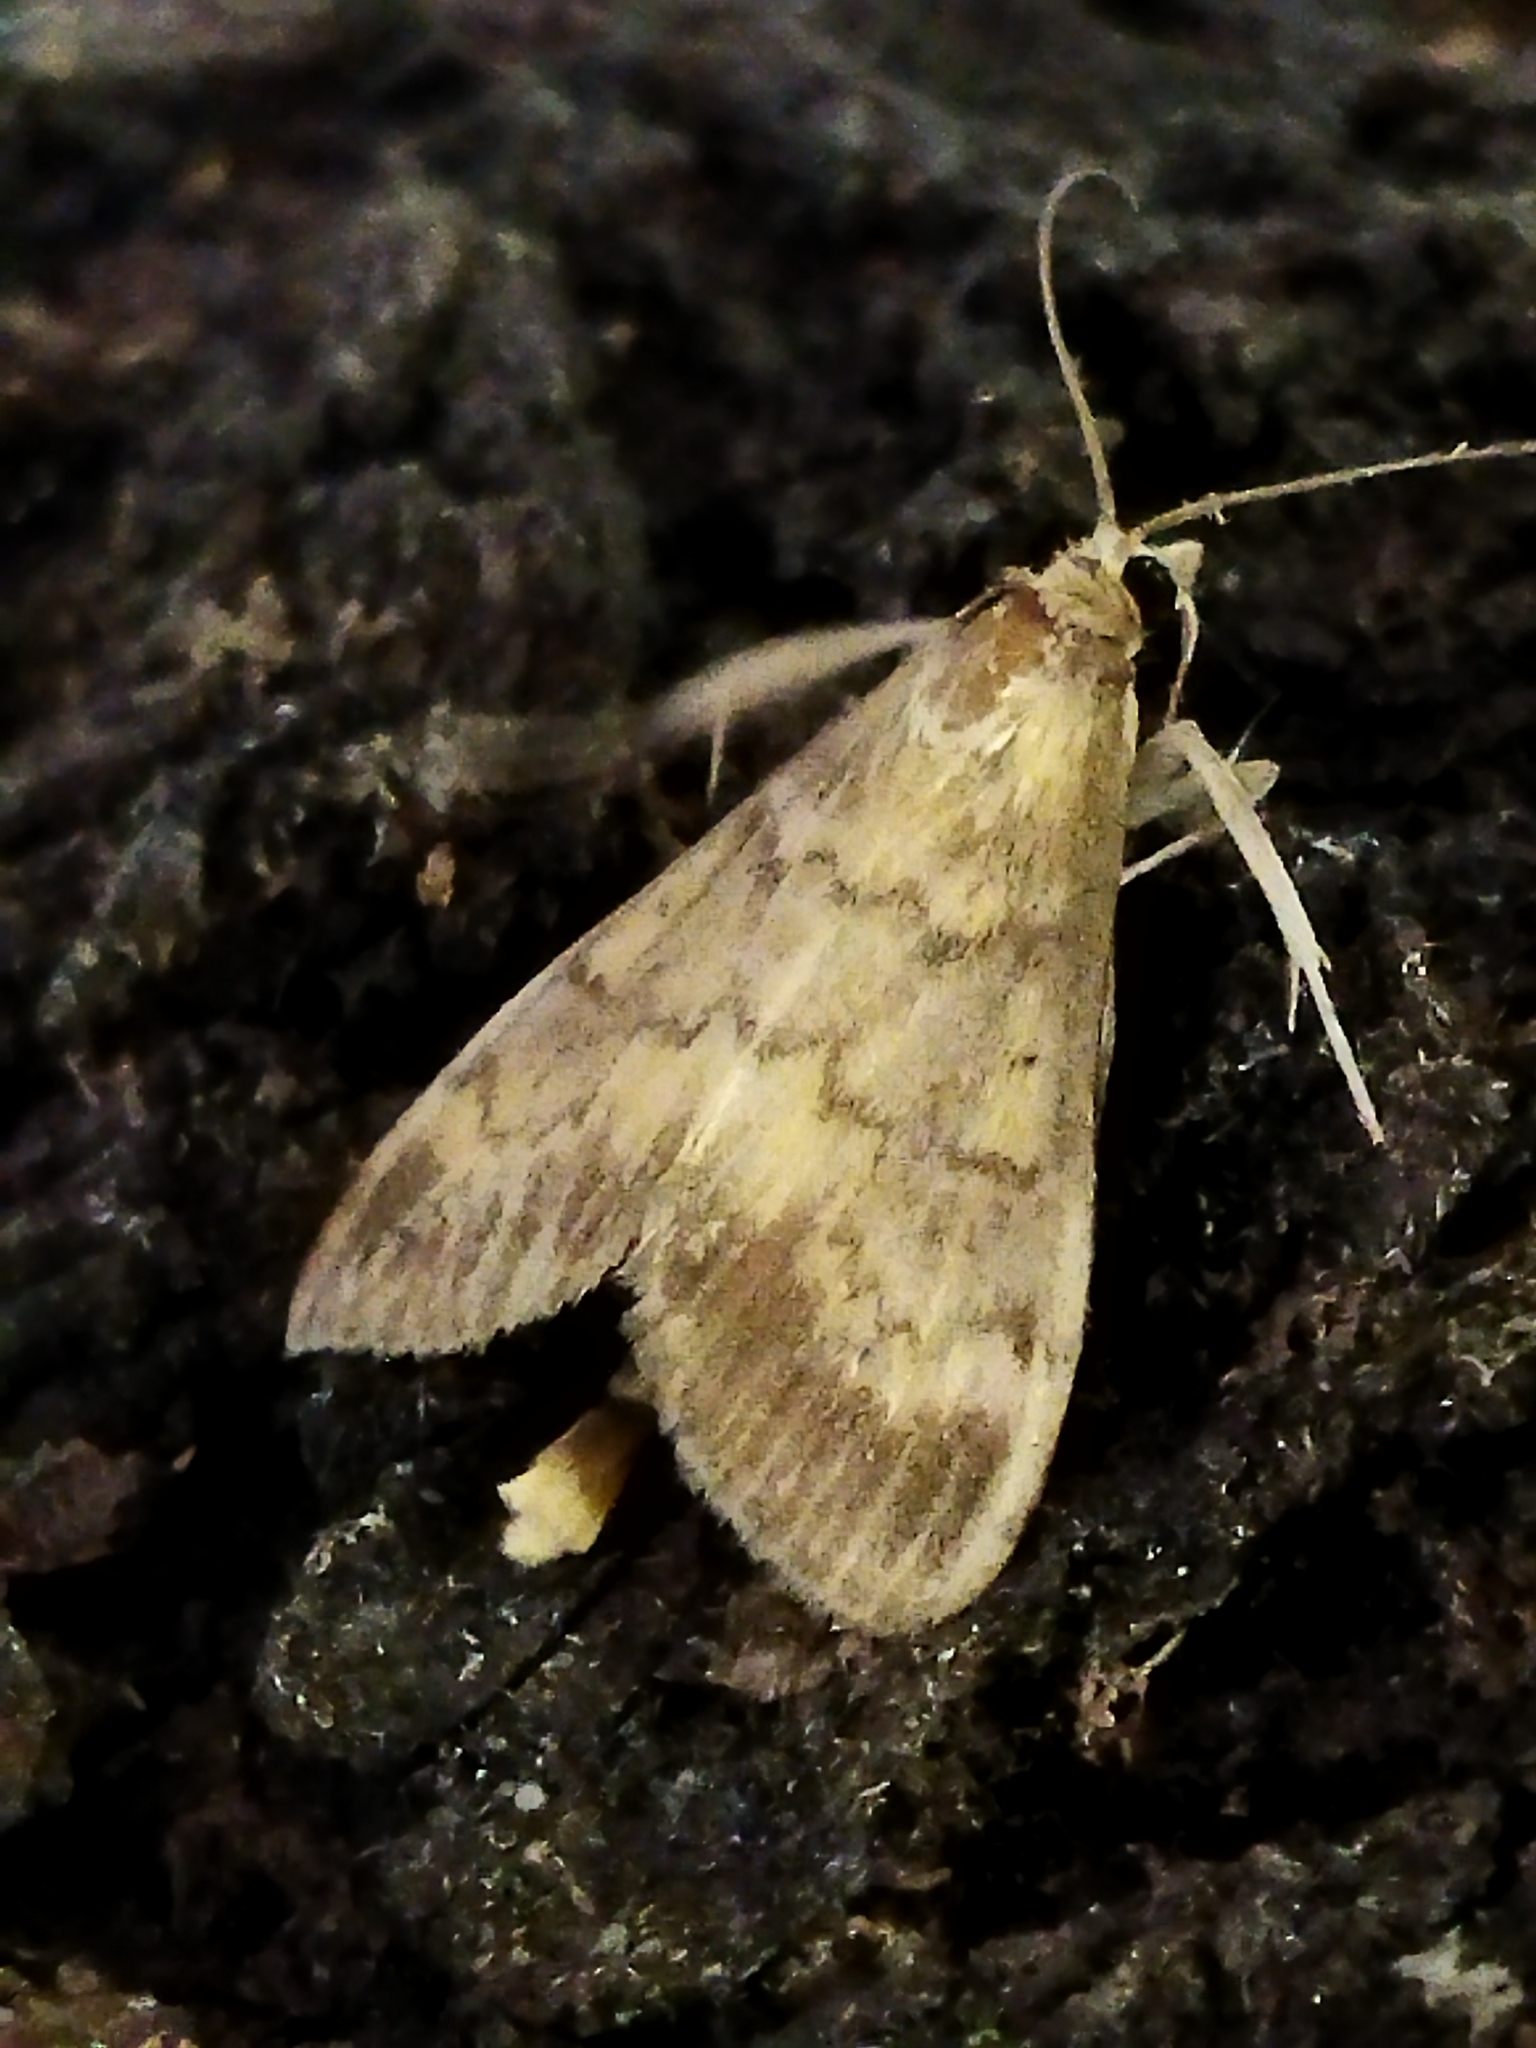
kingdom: Animalia
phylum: Arthropoda
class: Insecta
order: Lepidoptera
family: Crambidae
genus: Ostrinia
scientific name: Ostrinia nubilalis
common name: European corn borer
